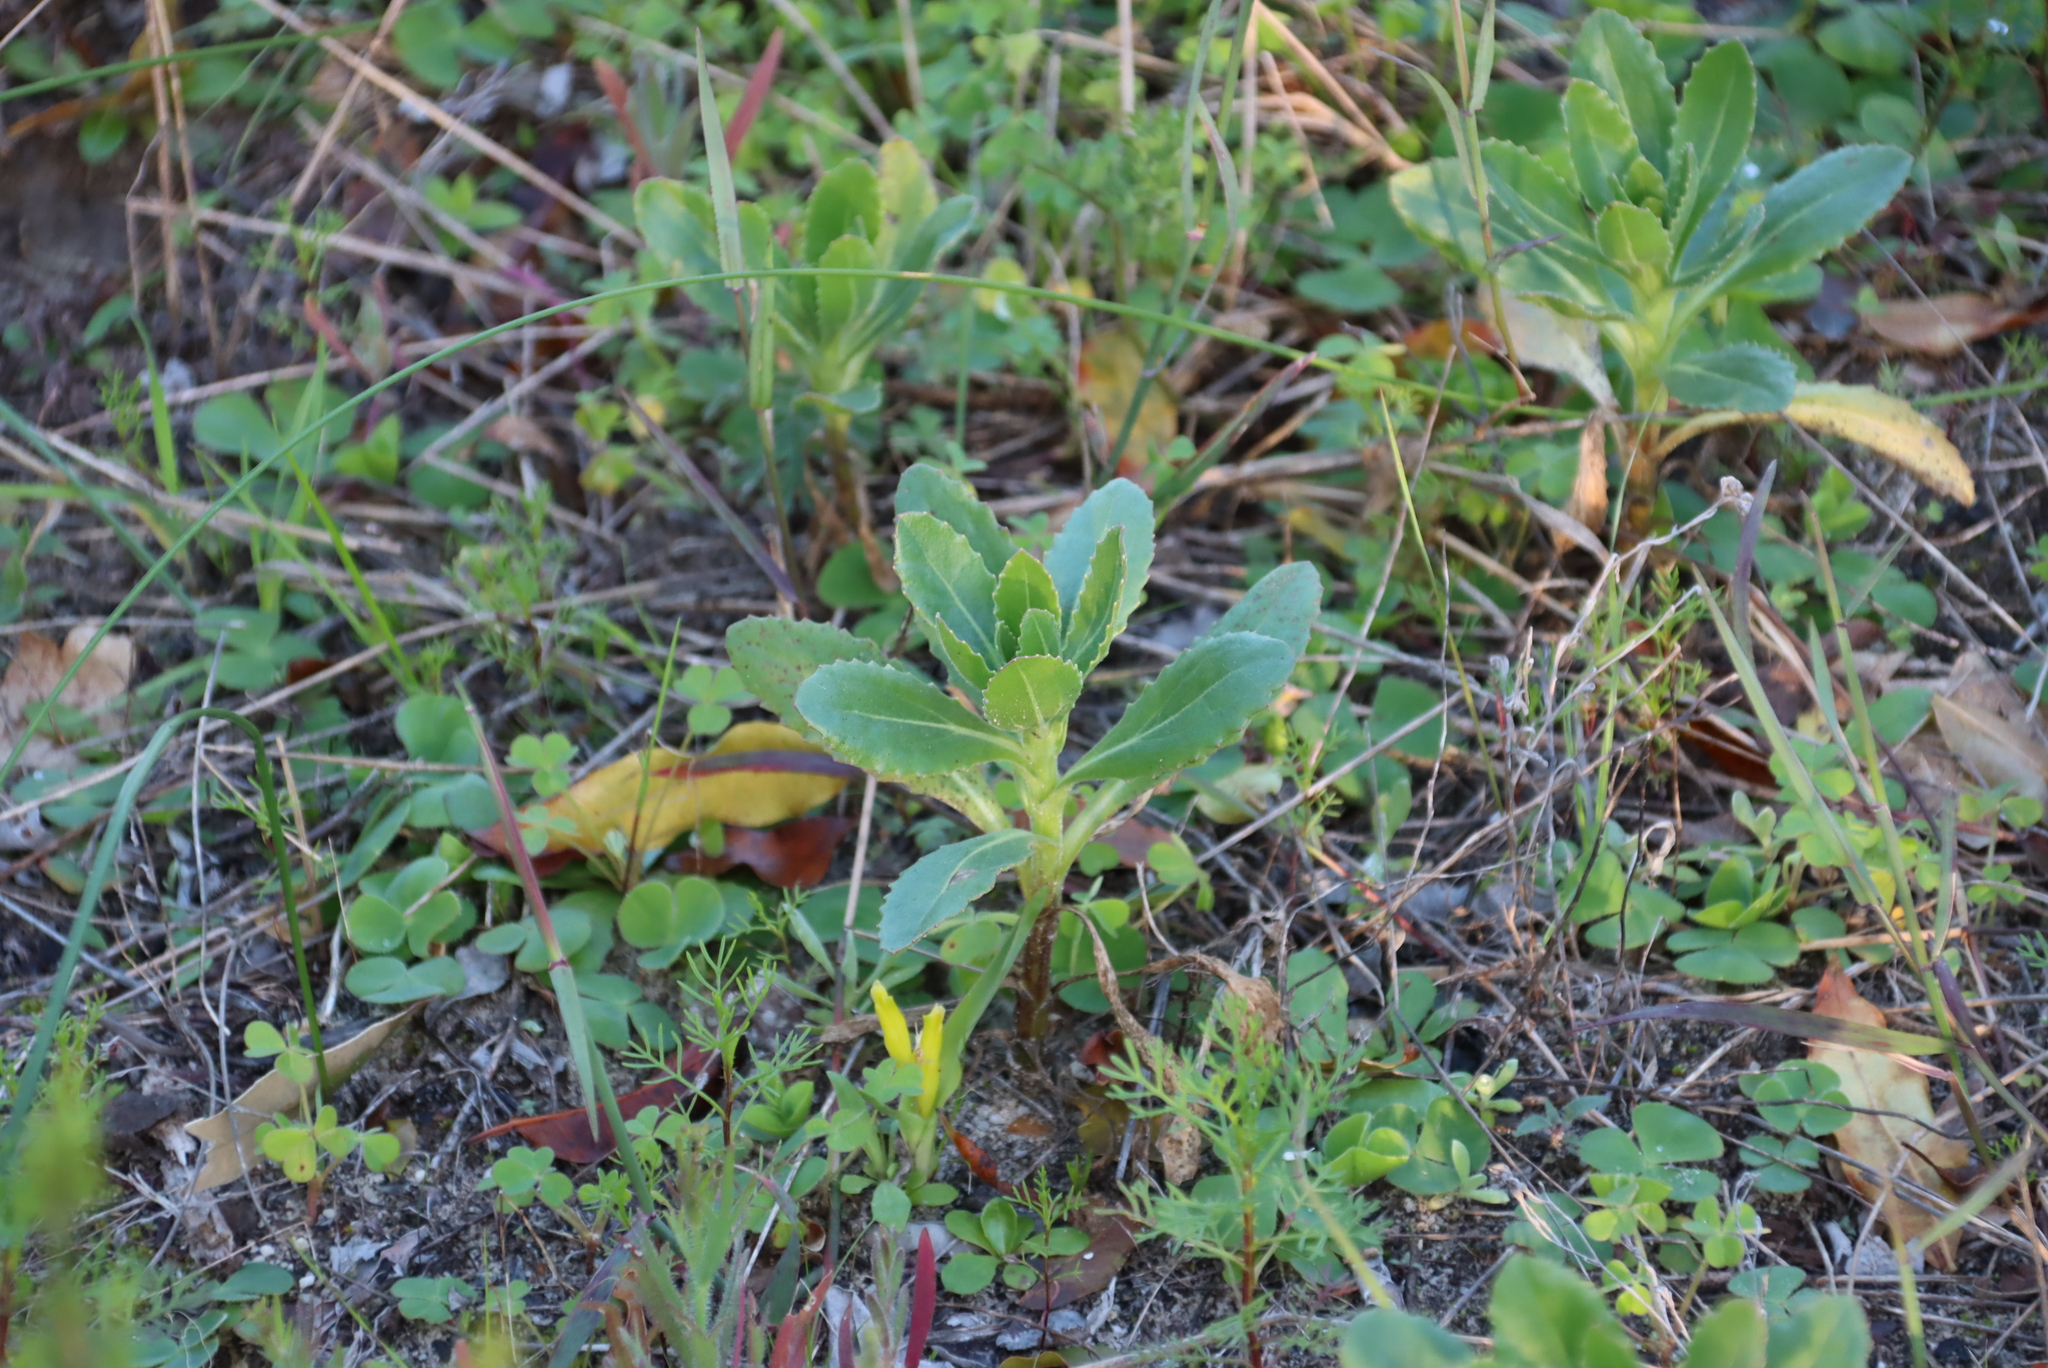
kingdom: Plantae
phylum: Tracheophyta
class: Liliopsida
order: Asparagales
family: Asparagaceae
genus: Lachenalia
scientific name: Lachenalia reflexa
